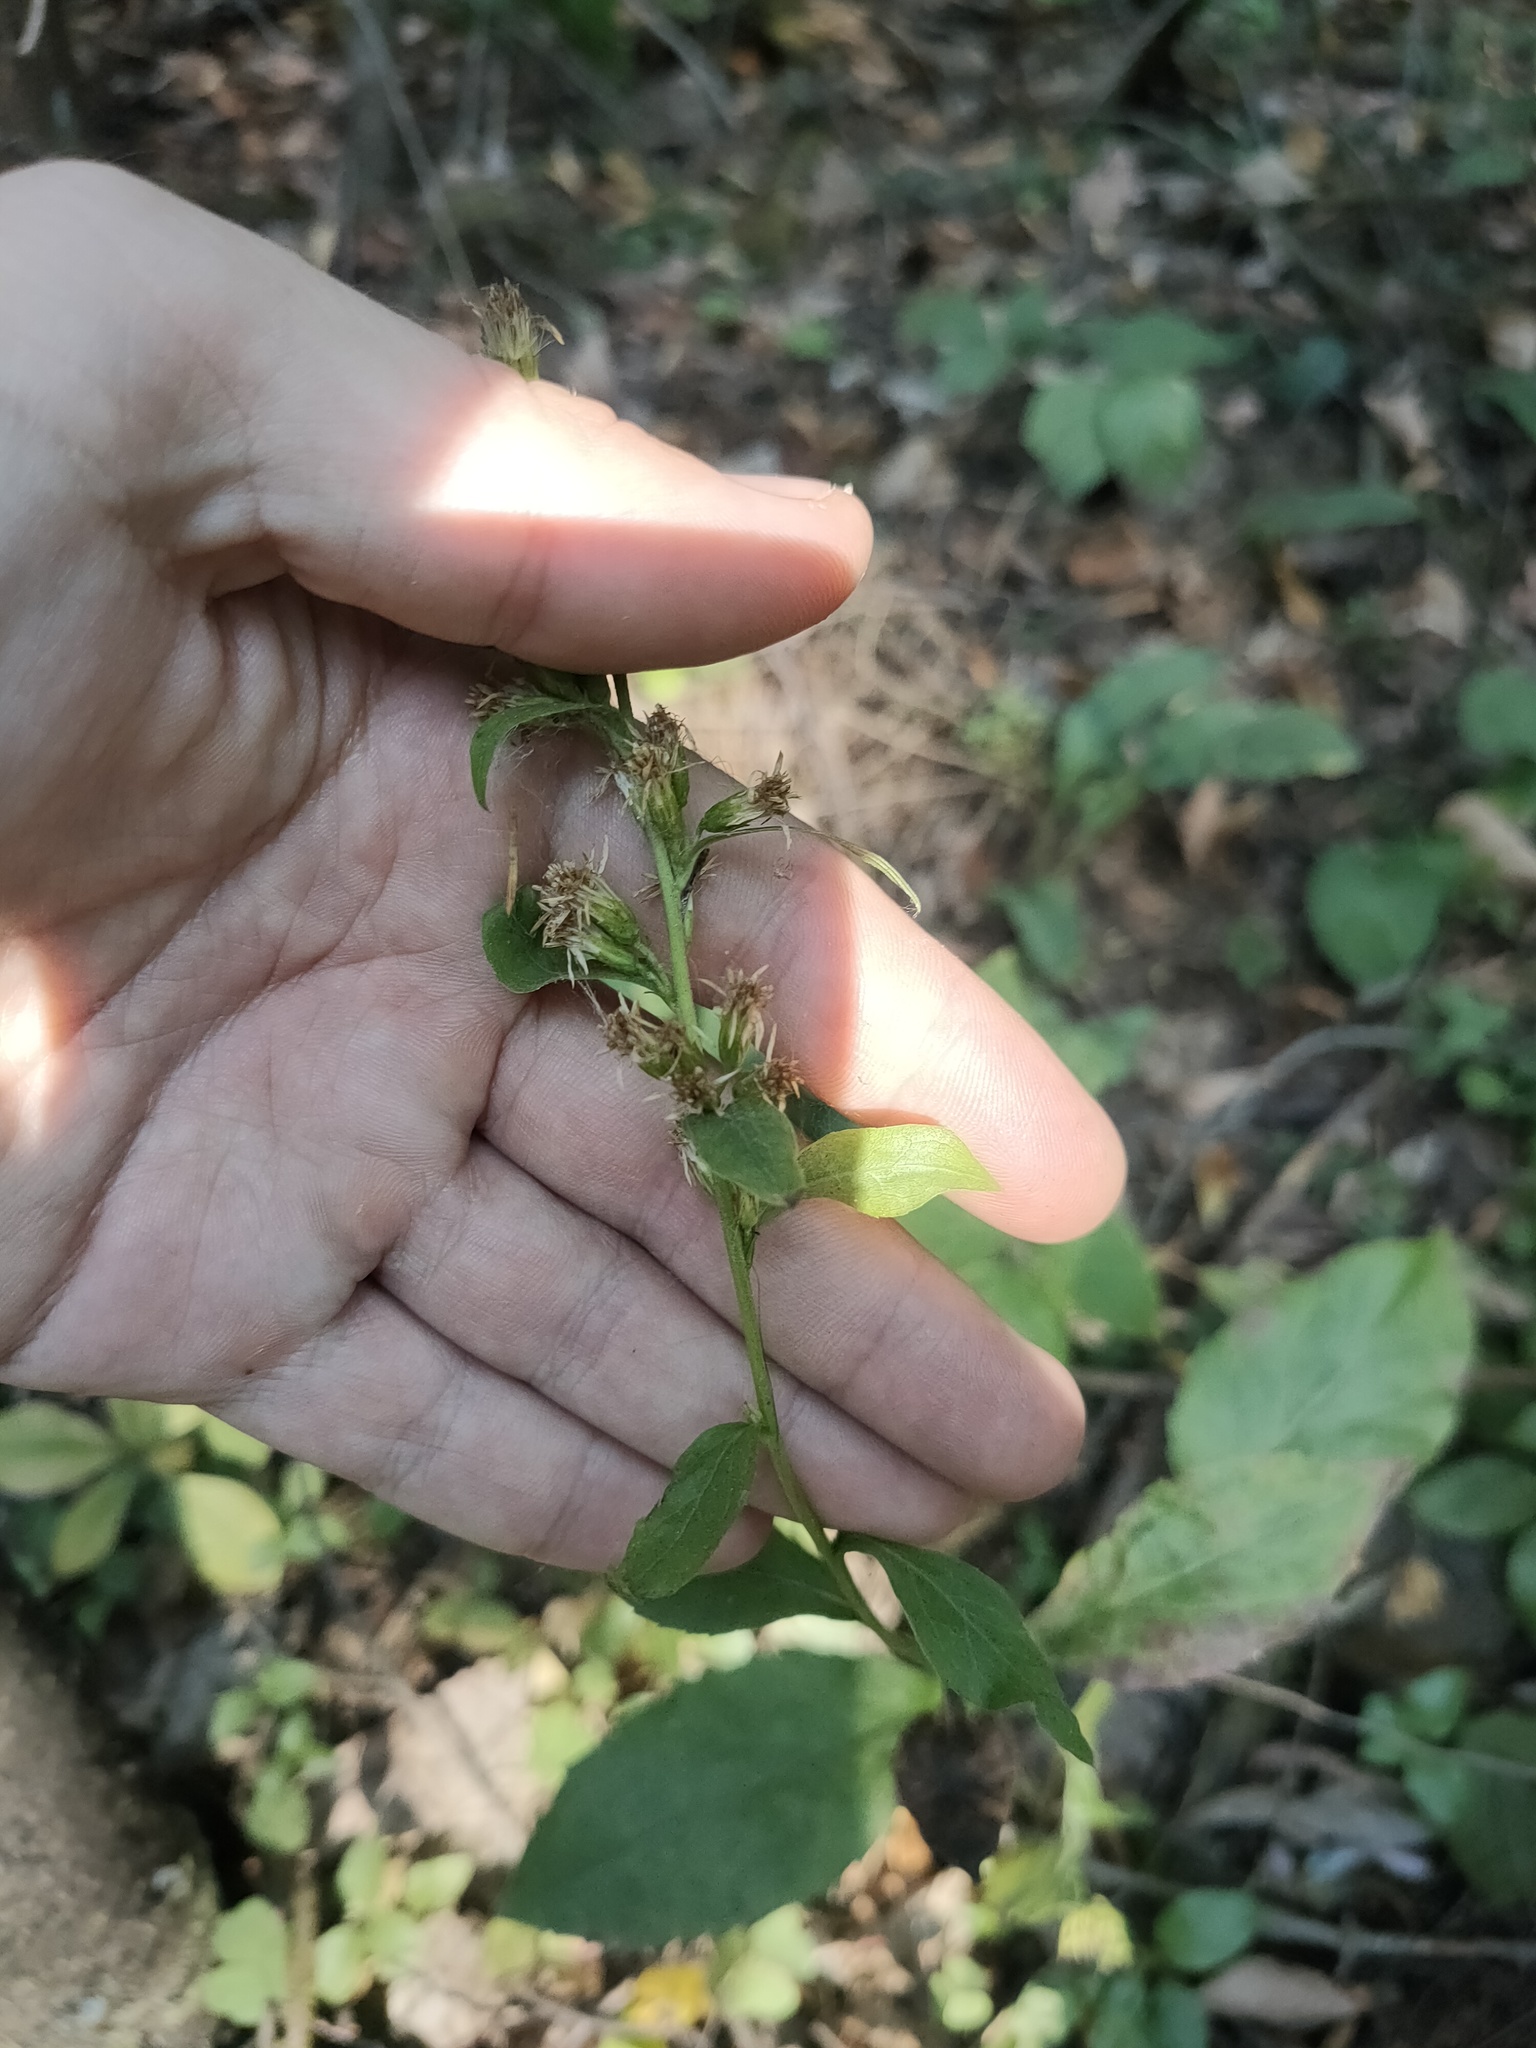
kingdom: Plantae
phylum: Tracheophyta
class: Magnoliopsida
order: Asterales
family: Asteraceae
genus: Solidago
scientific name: Solidago virgaurea
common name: Goldenrod
